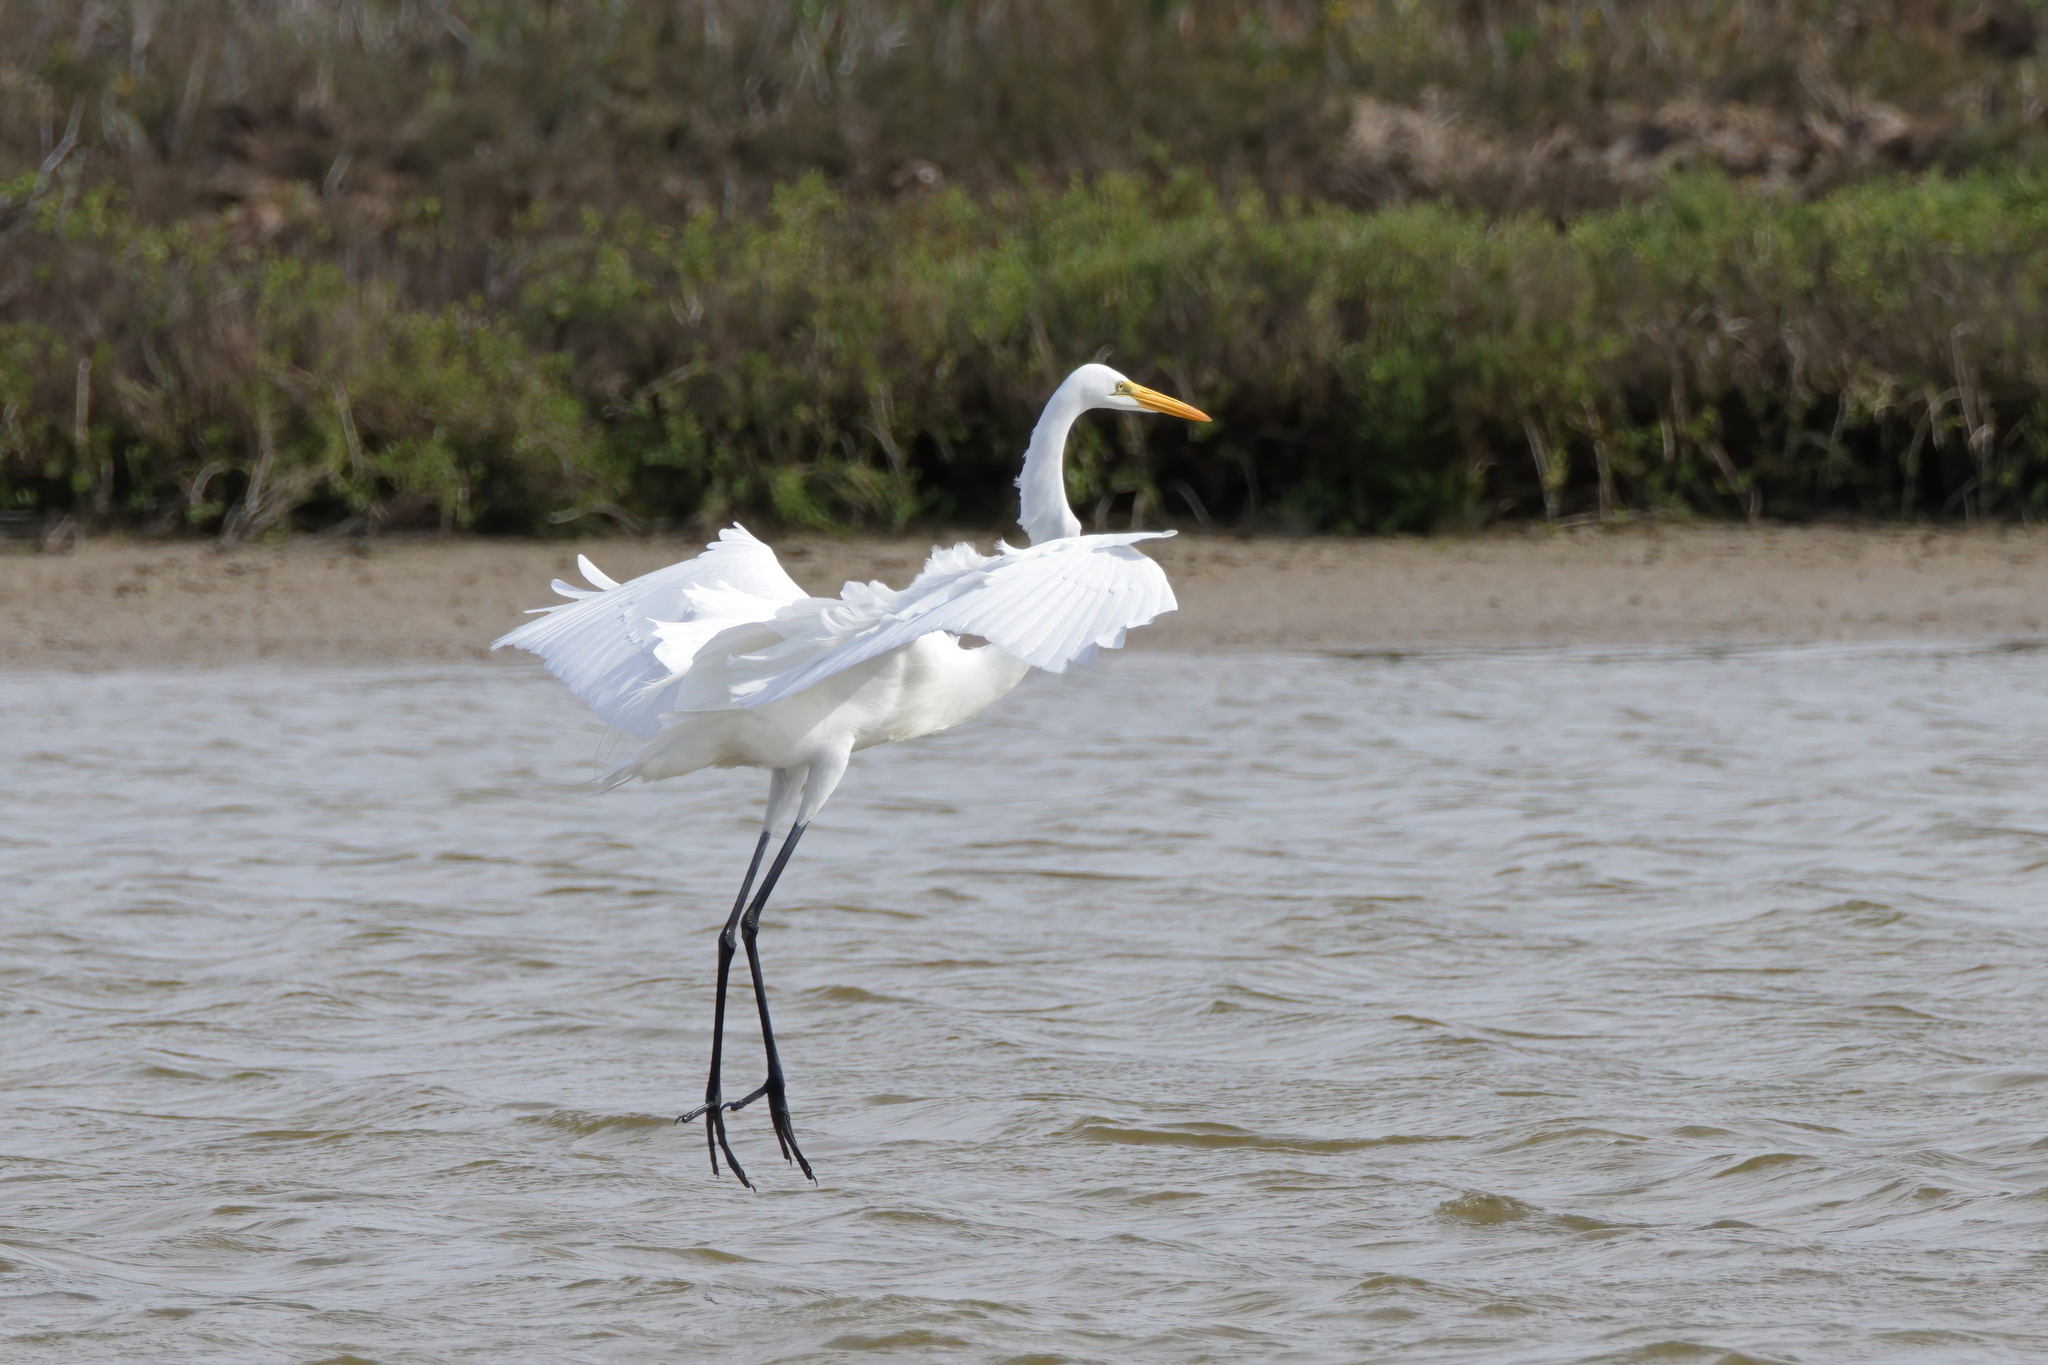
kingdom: Animalia
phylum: Chordata
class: Aves
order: Pelecaniformes
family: Ardeidae
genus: Ardea
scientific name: Ardea alba
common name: Great egret
